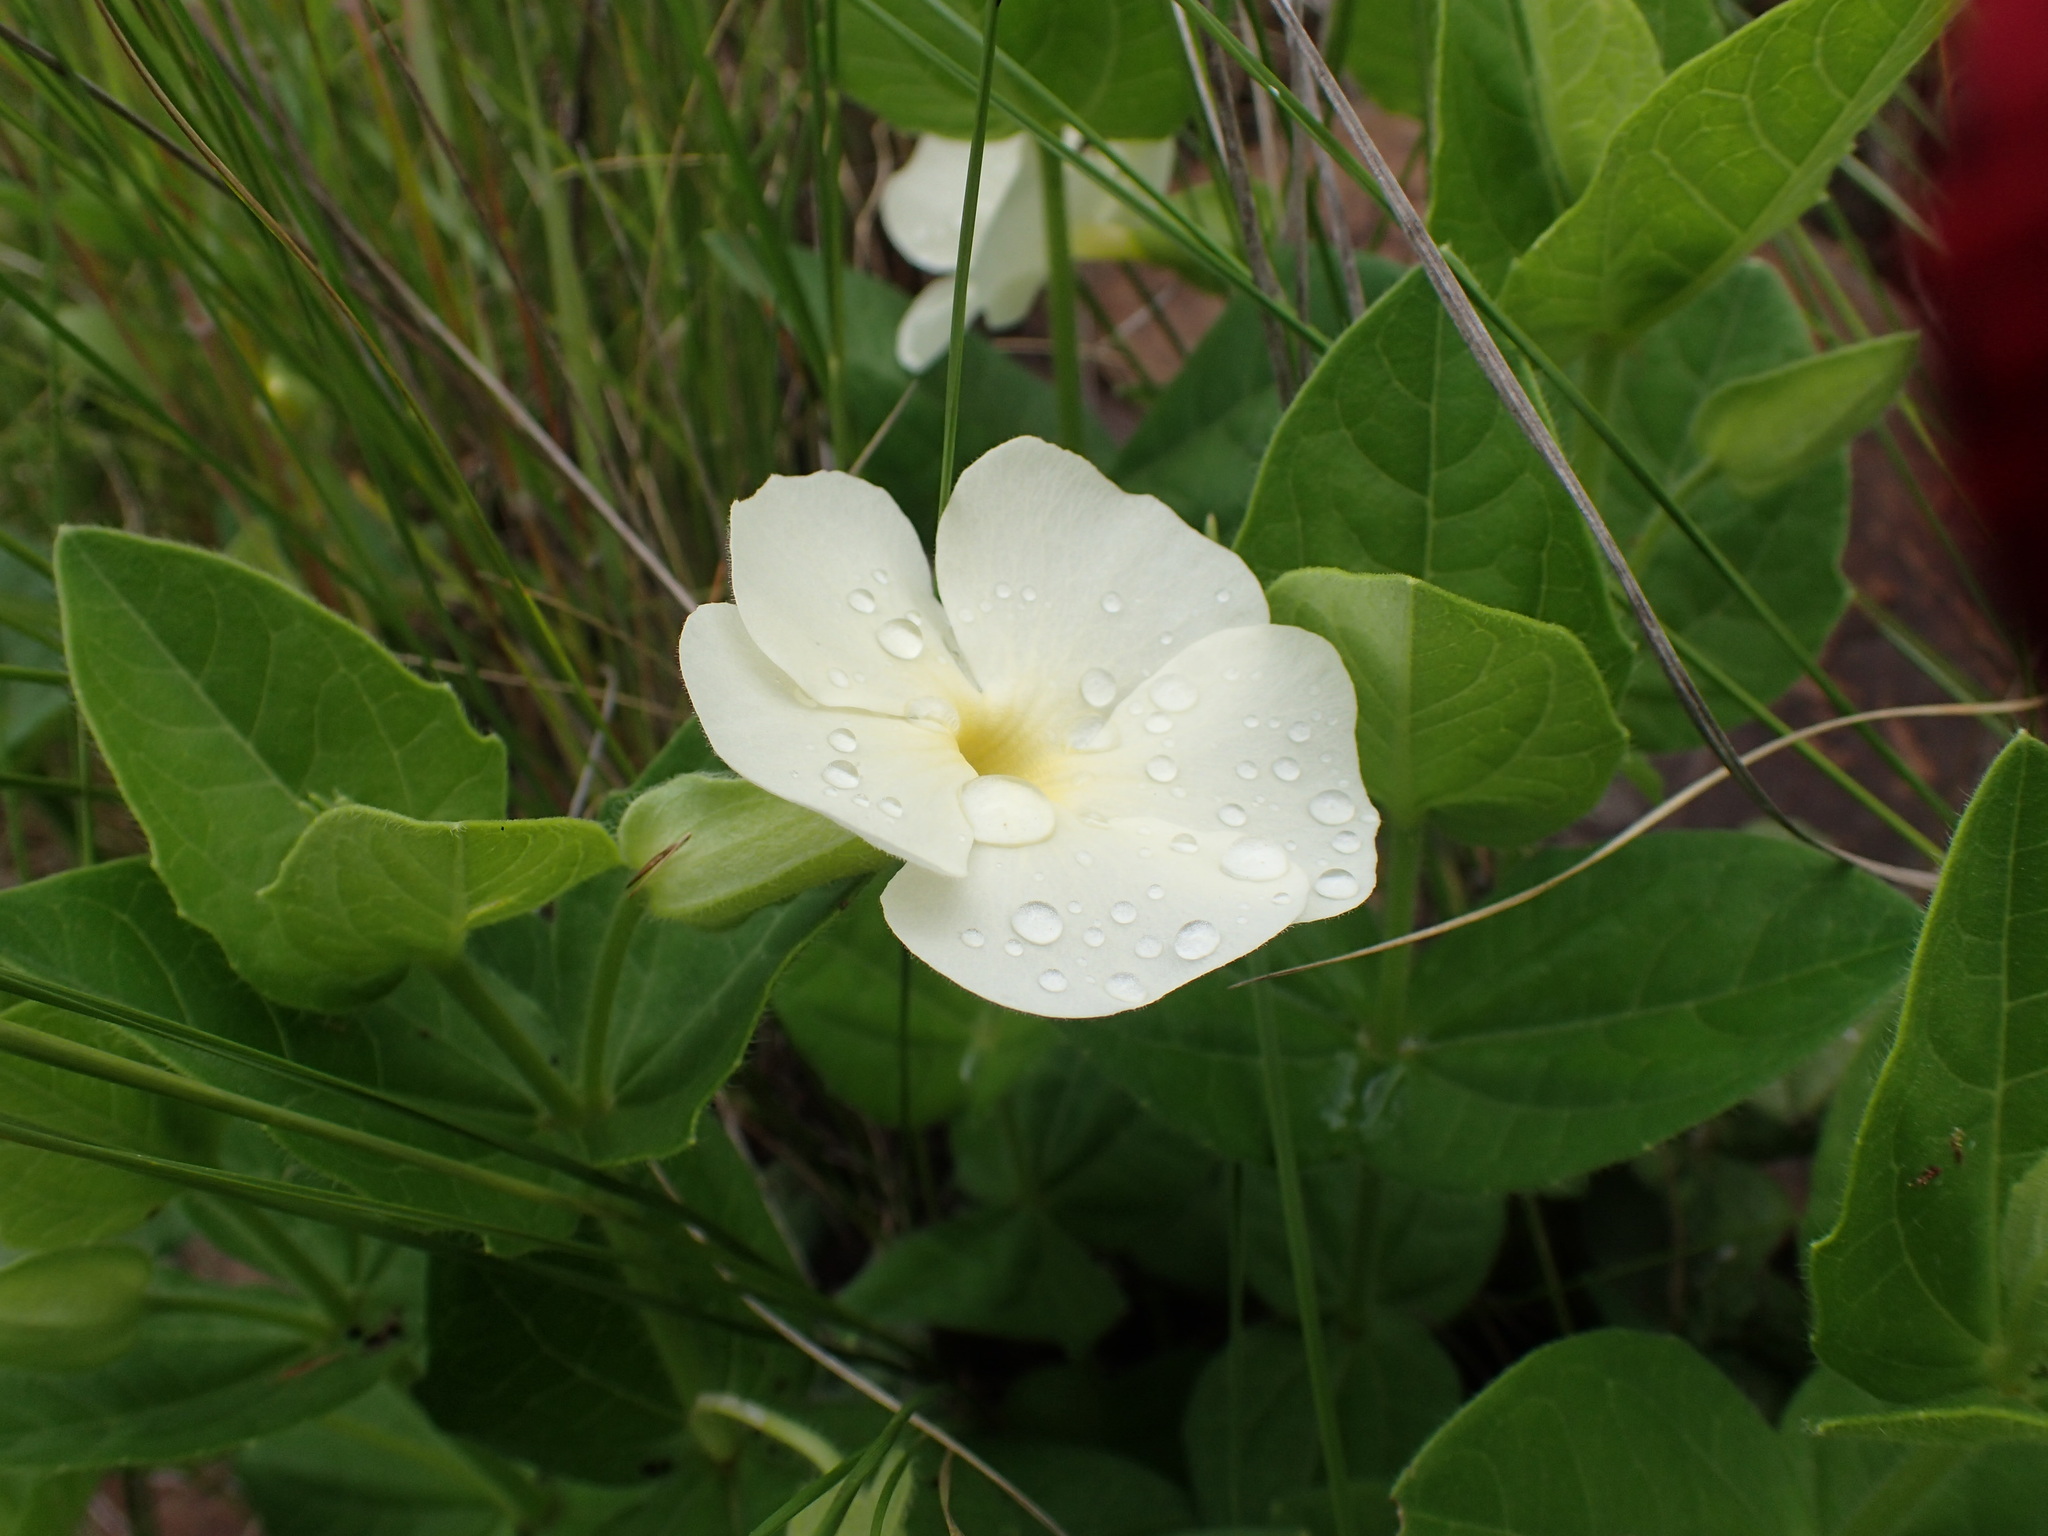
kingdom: Plantae
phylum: Tracheophyta
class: Magnoliopsida
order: Lamiales
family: Acanthaceae
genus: Thunbergia
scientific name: Thunbergia atriplicifolia
